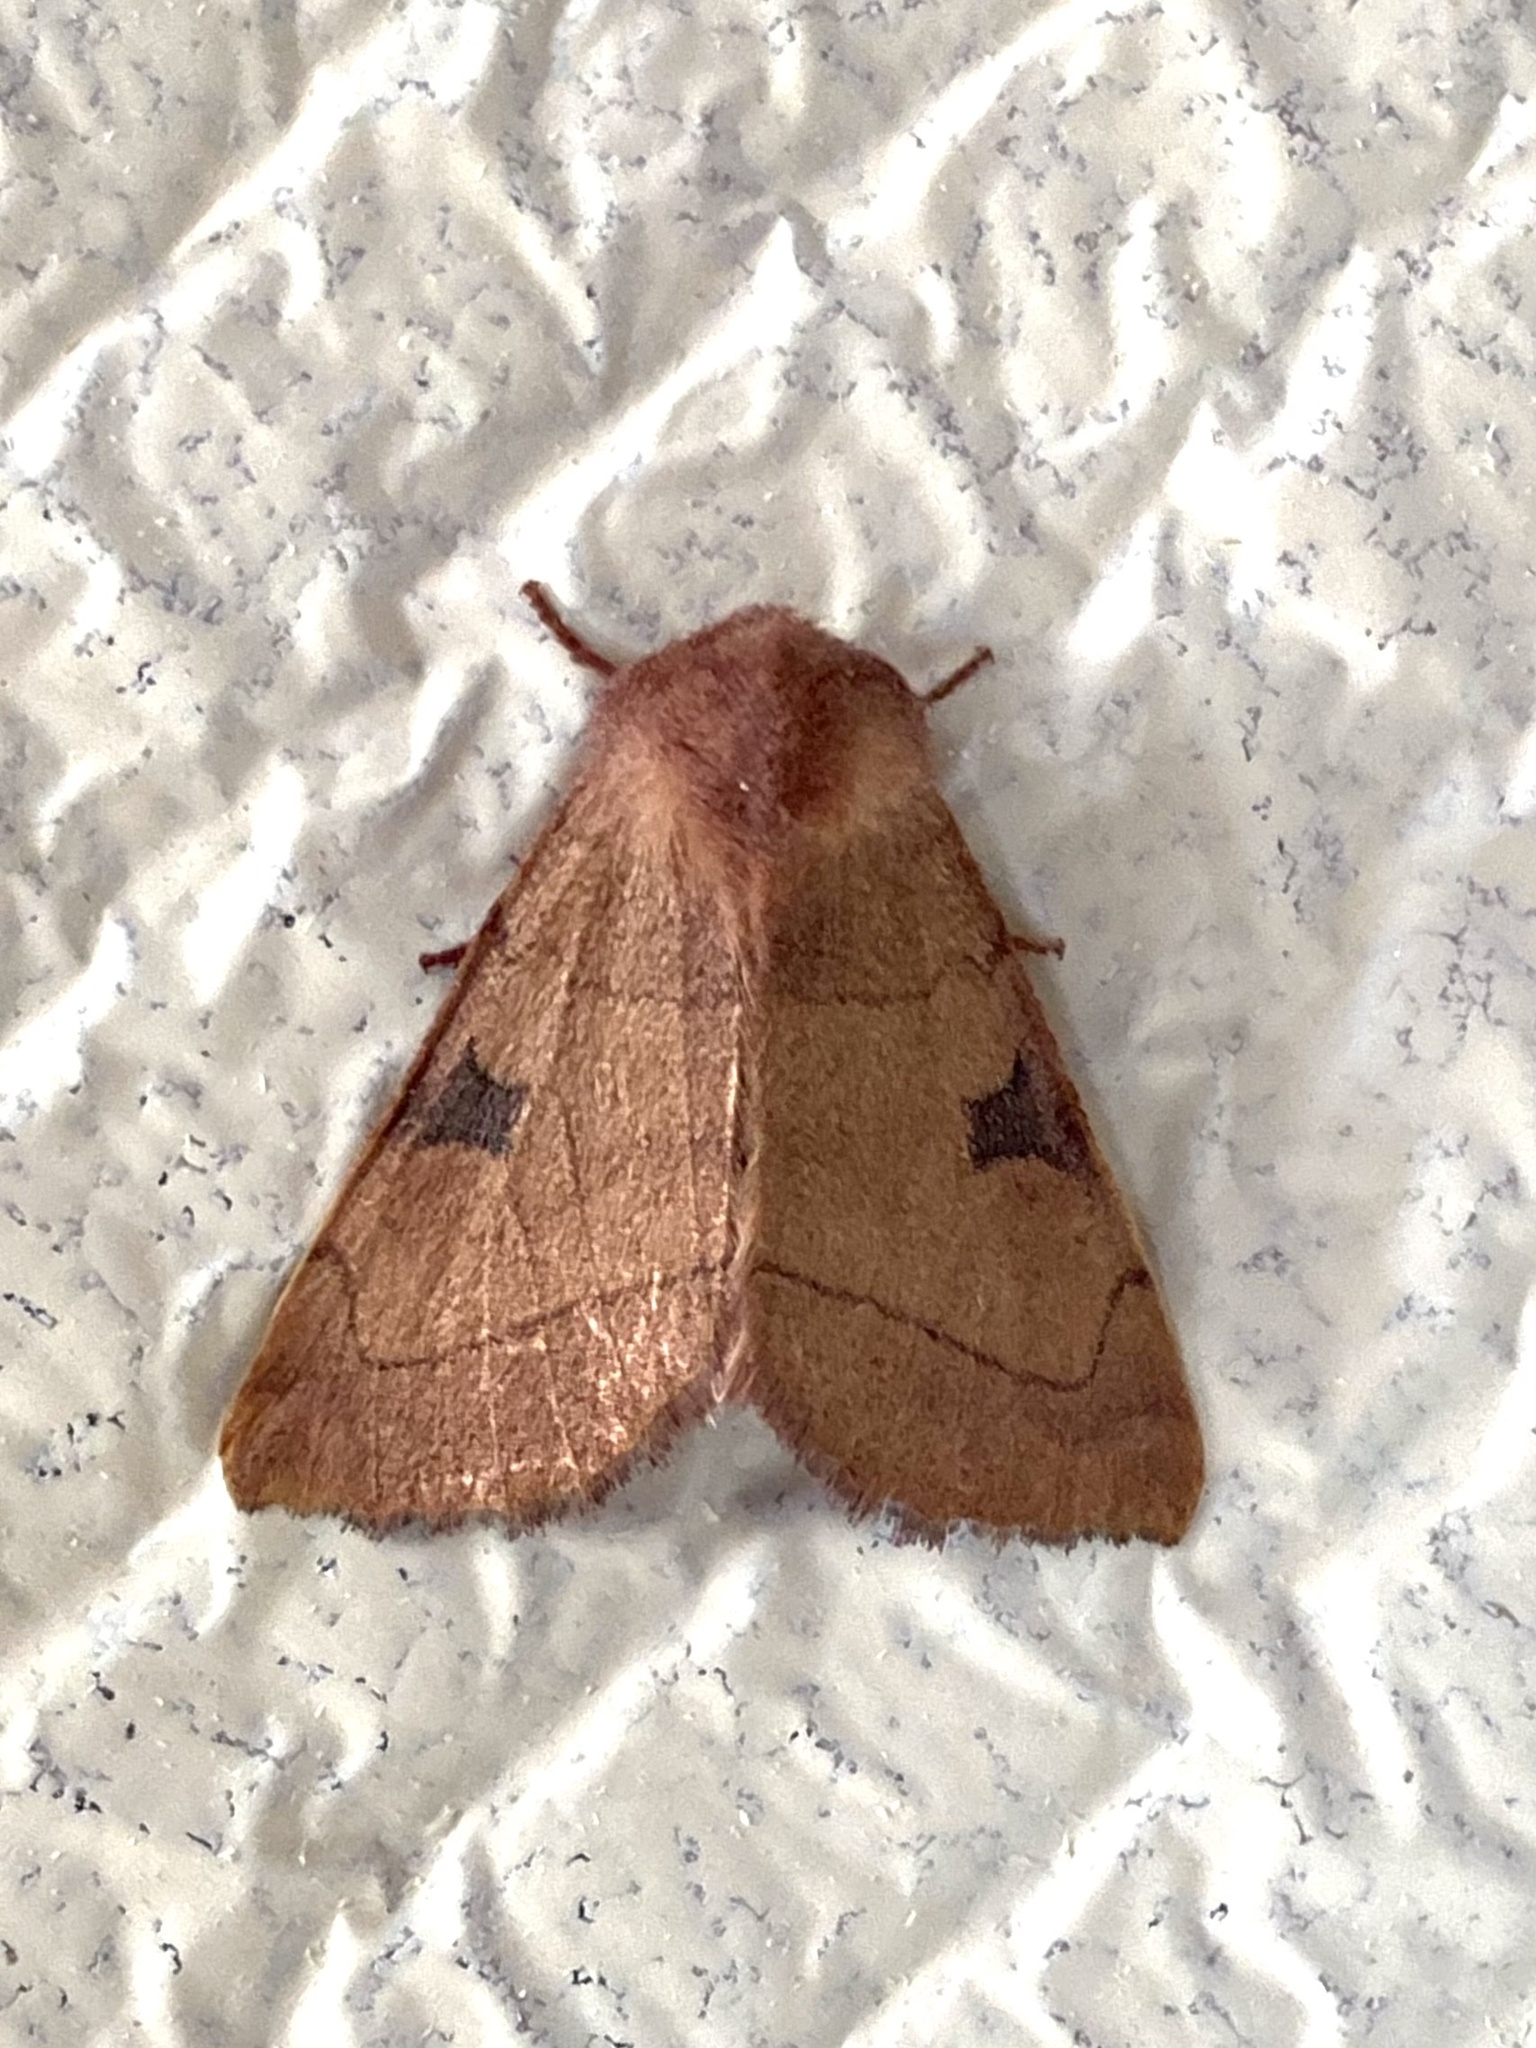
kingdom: Animalia
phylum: Arthropoda
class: Insecta
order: Lepidoptera
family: Noctuidae
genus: Choephora
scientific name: Choephora fungorum
